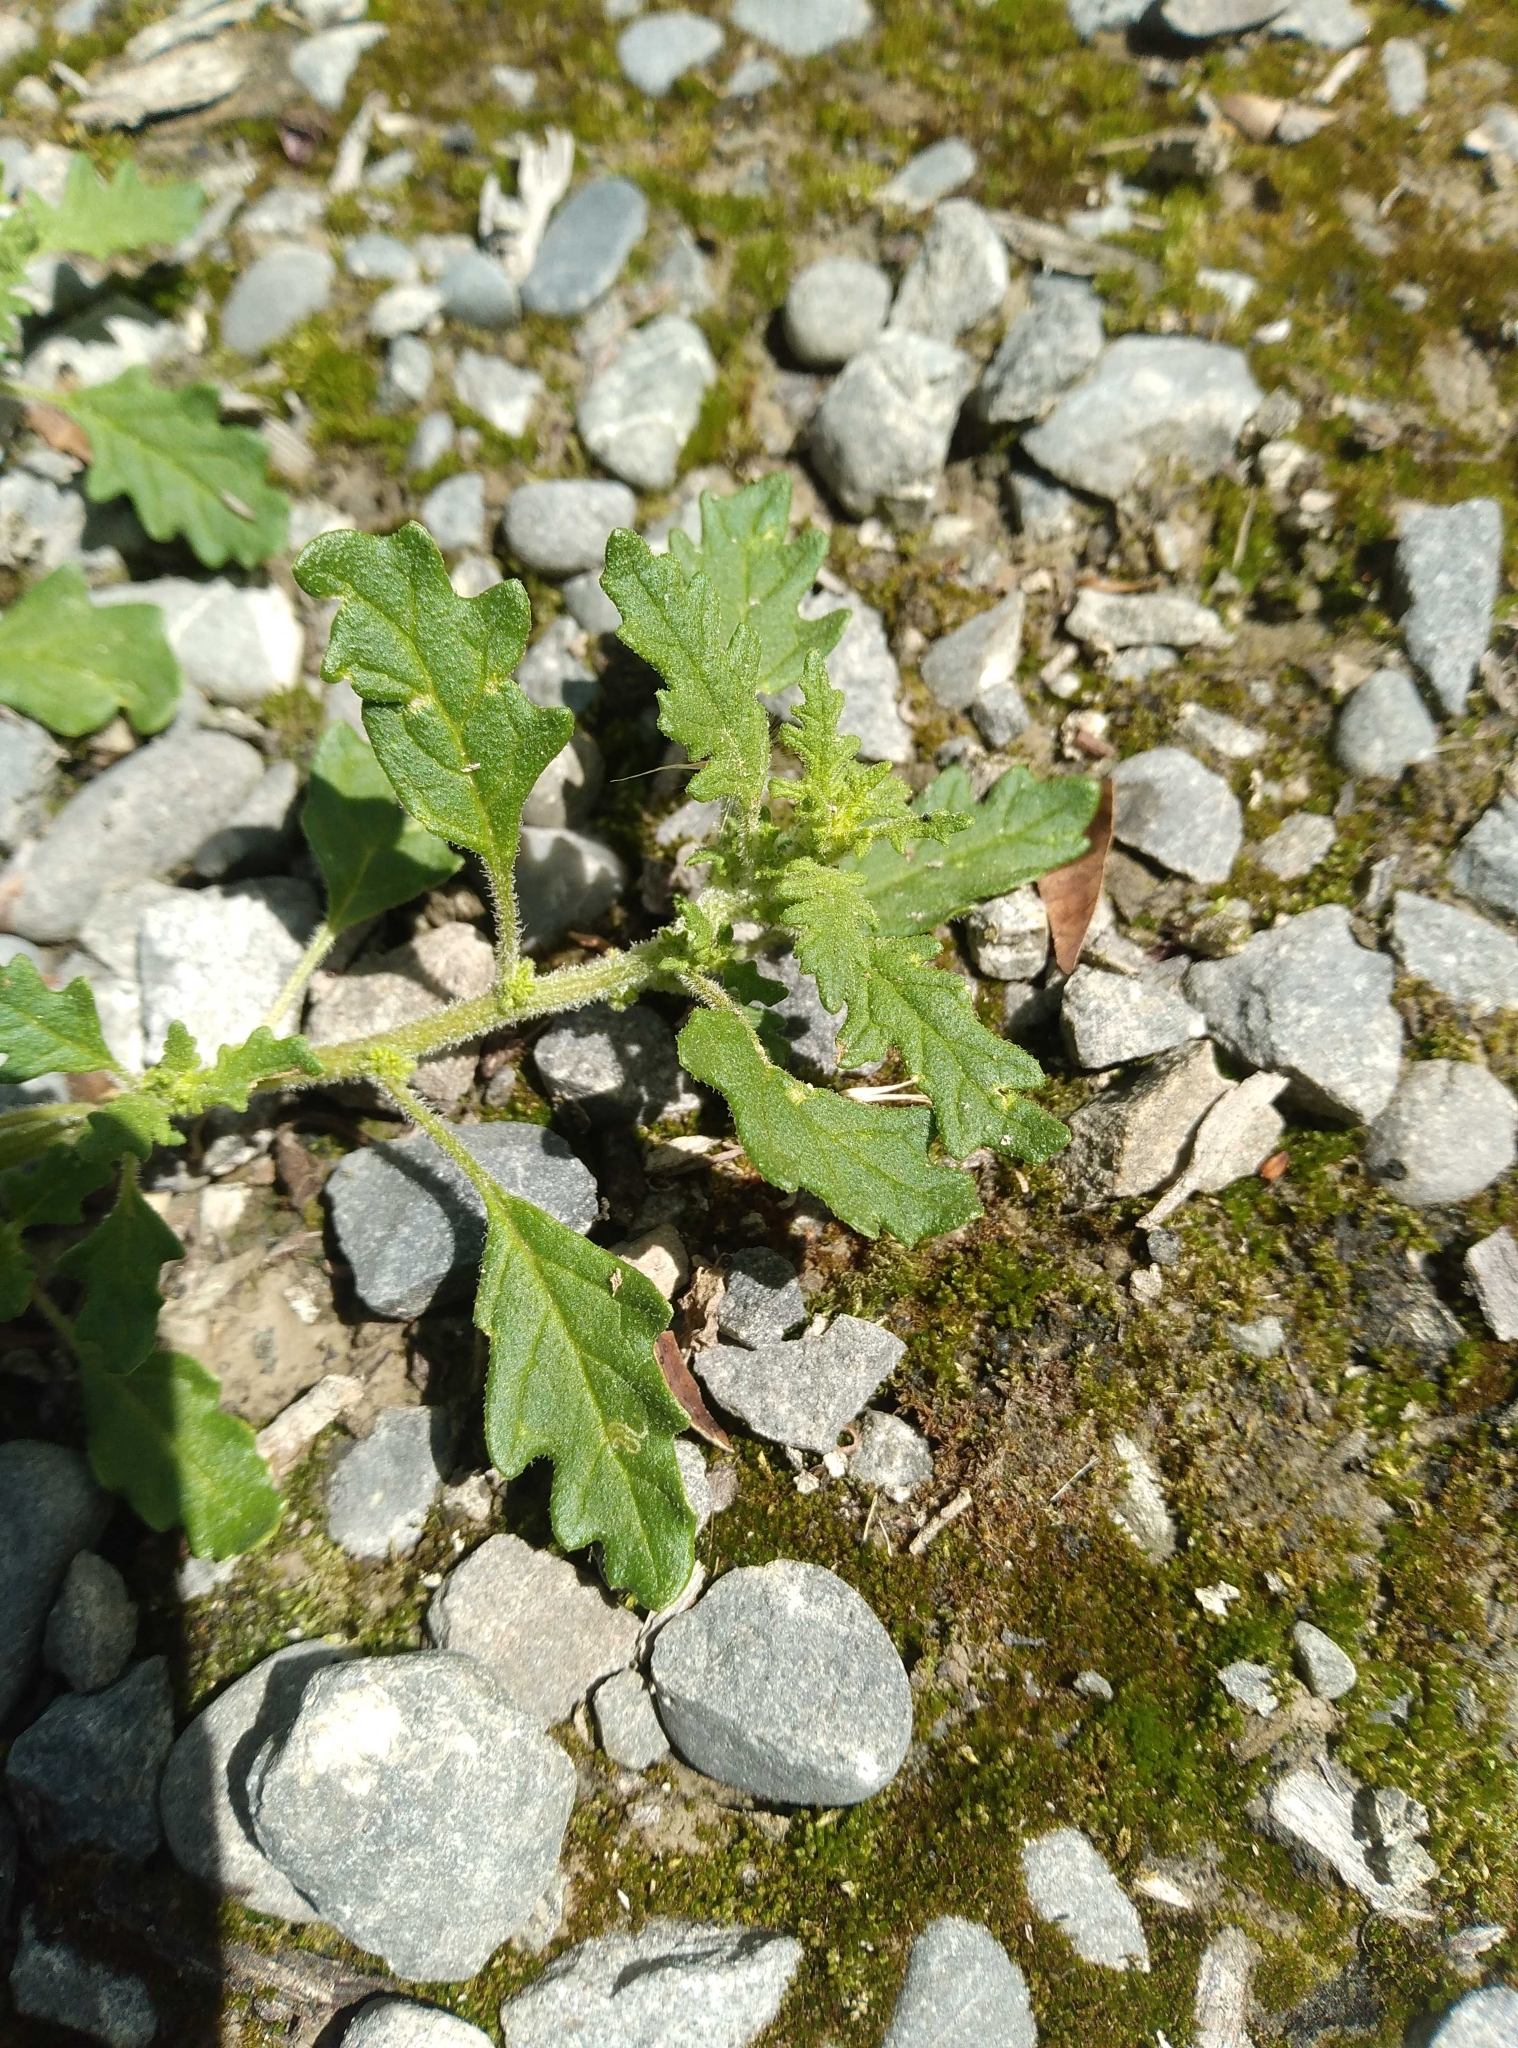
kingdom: Plantae
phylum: Tracheophyta
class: Magnoliopsida
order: Caryophyllales
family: Amaranthaceae
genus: Dysphania
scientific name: Dysphania pumilio
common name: Clammy goosefoot
